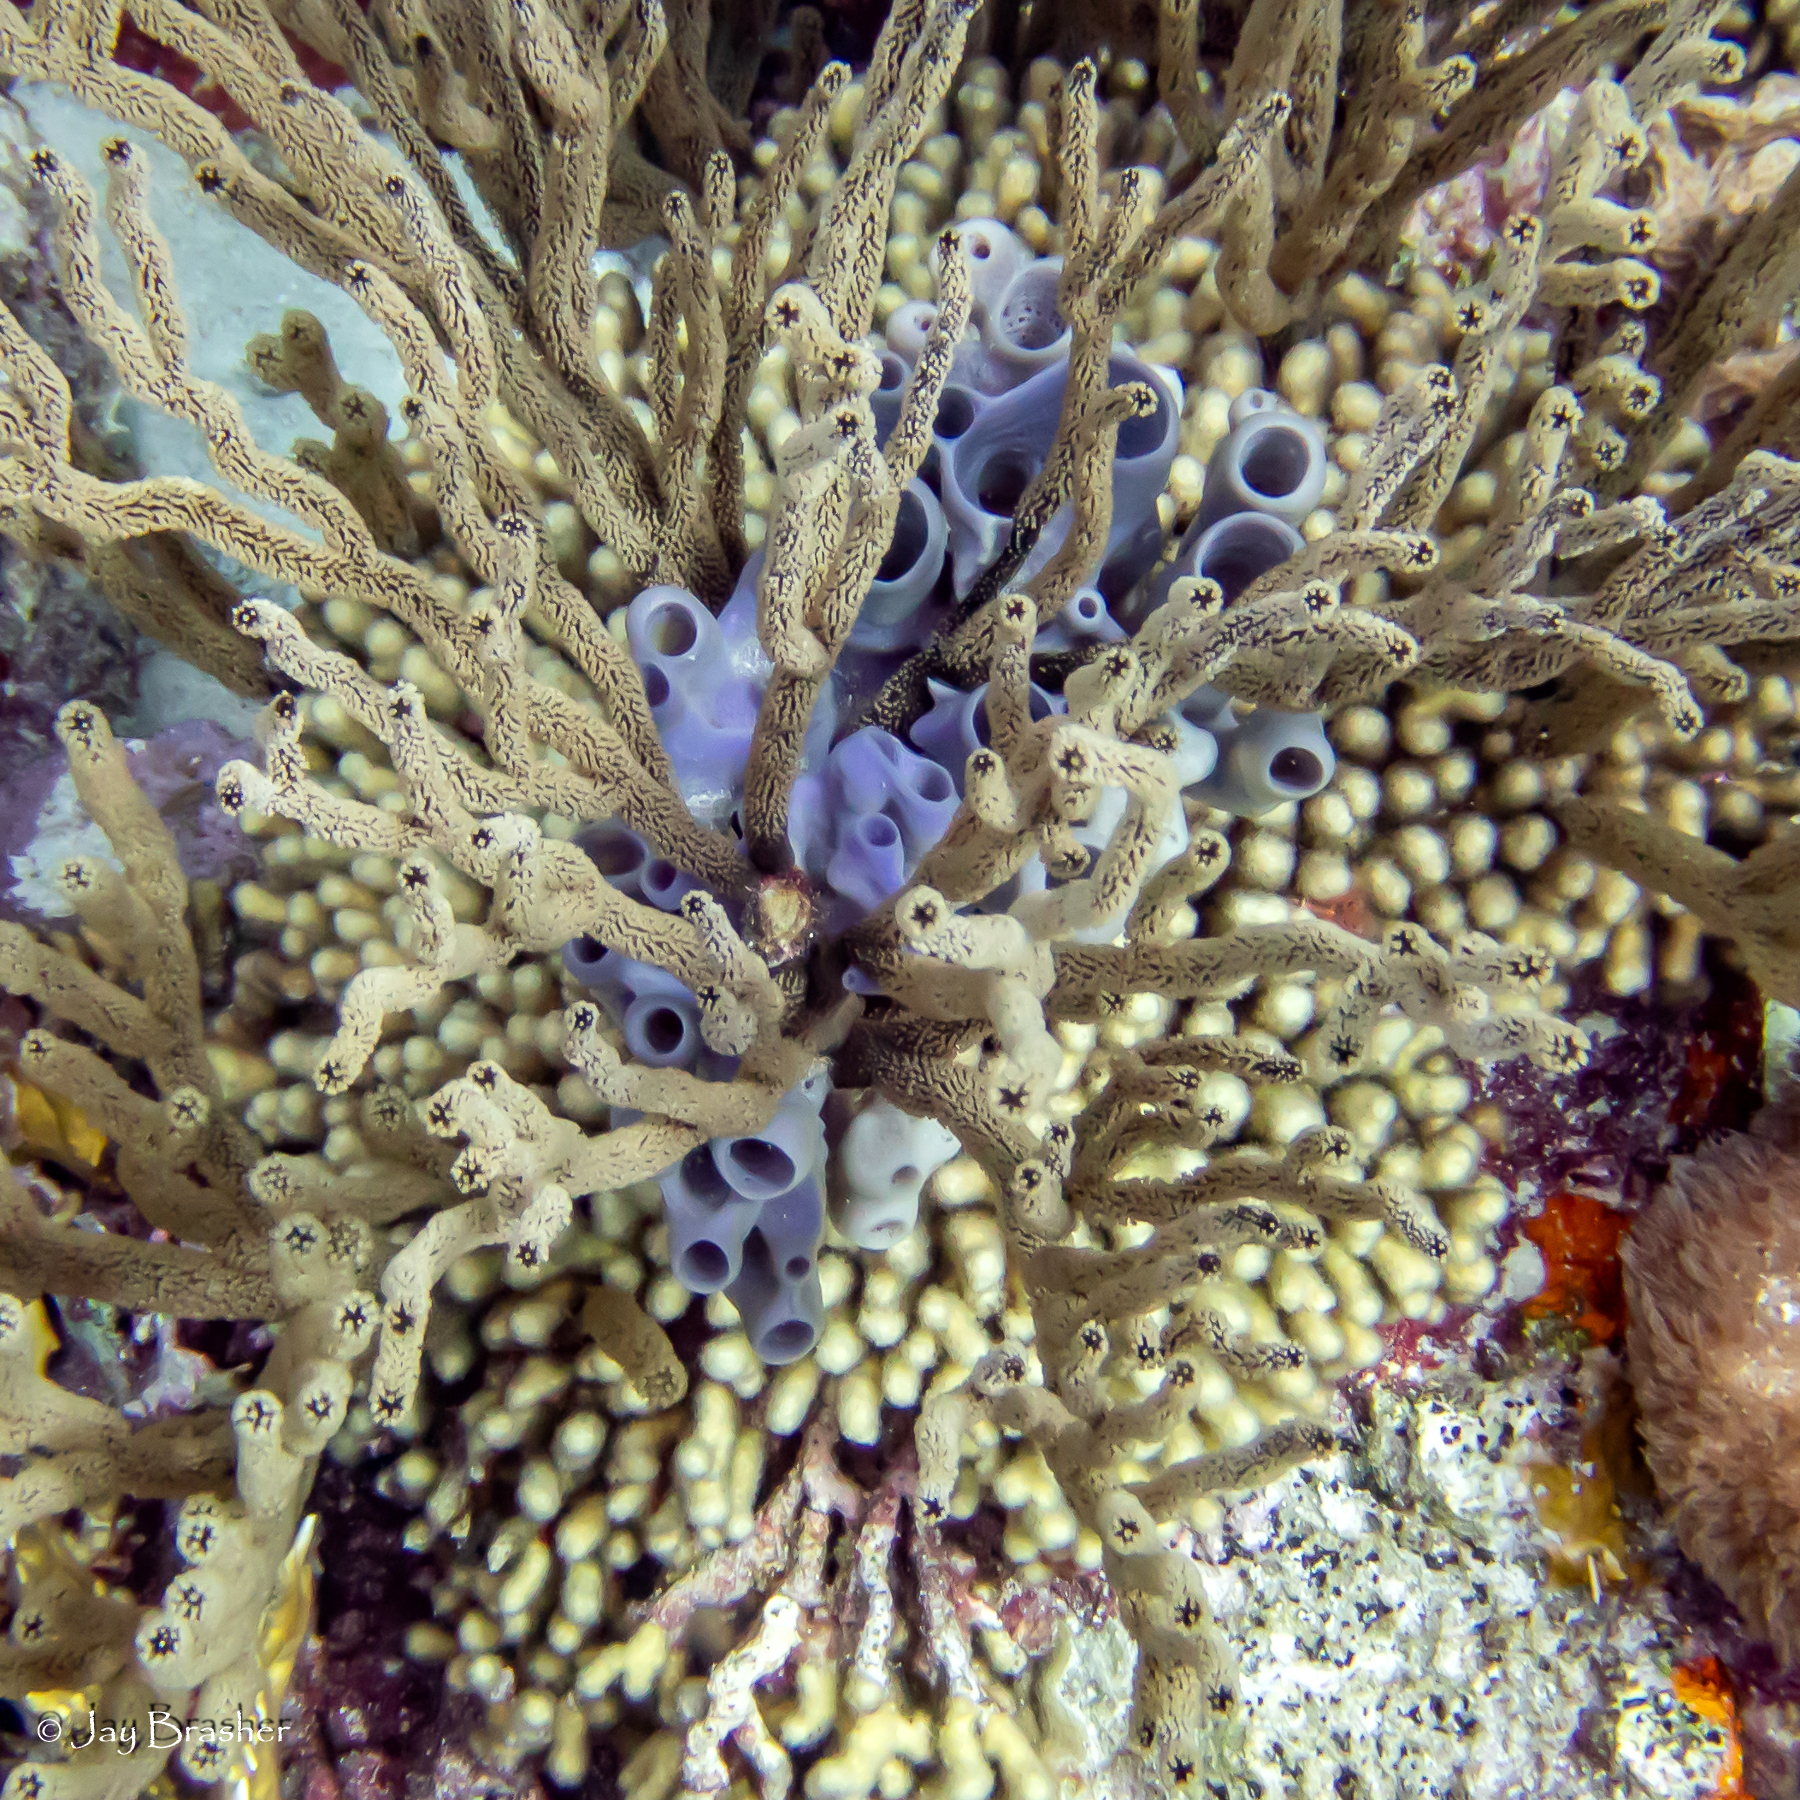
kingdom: Animalia
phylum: Porifera
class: Demospongiae
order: Haplosclerida
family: Callyspongiidae
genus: Callyspongia
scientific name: Callyspongia fallax
